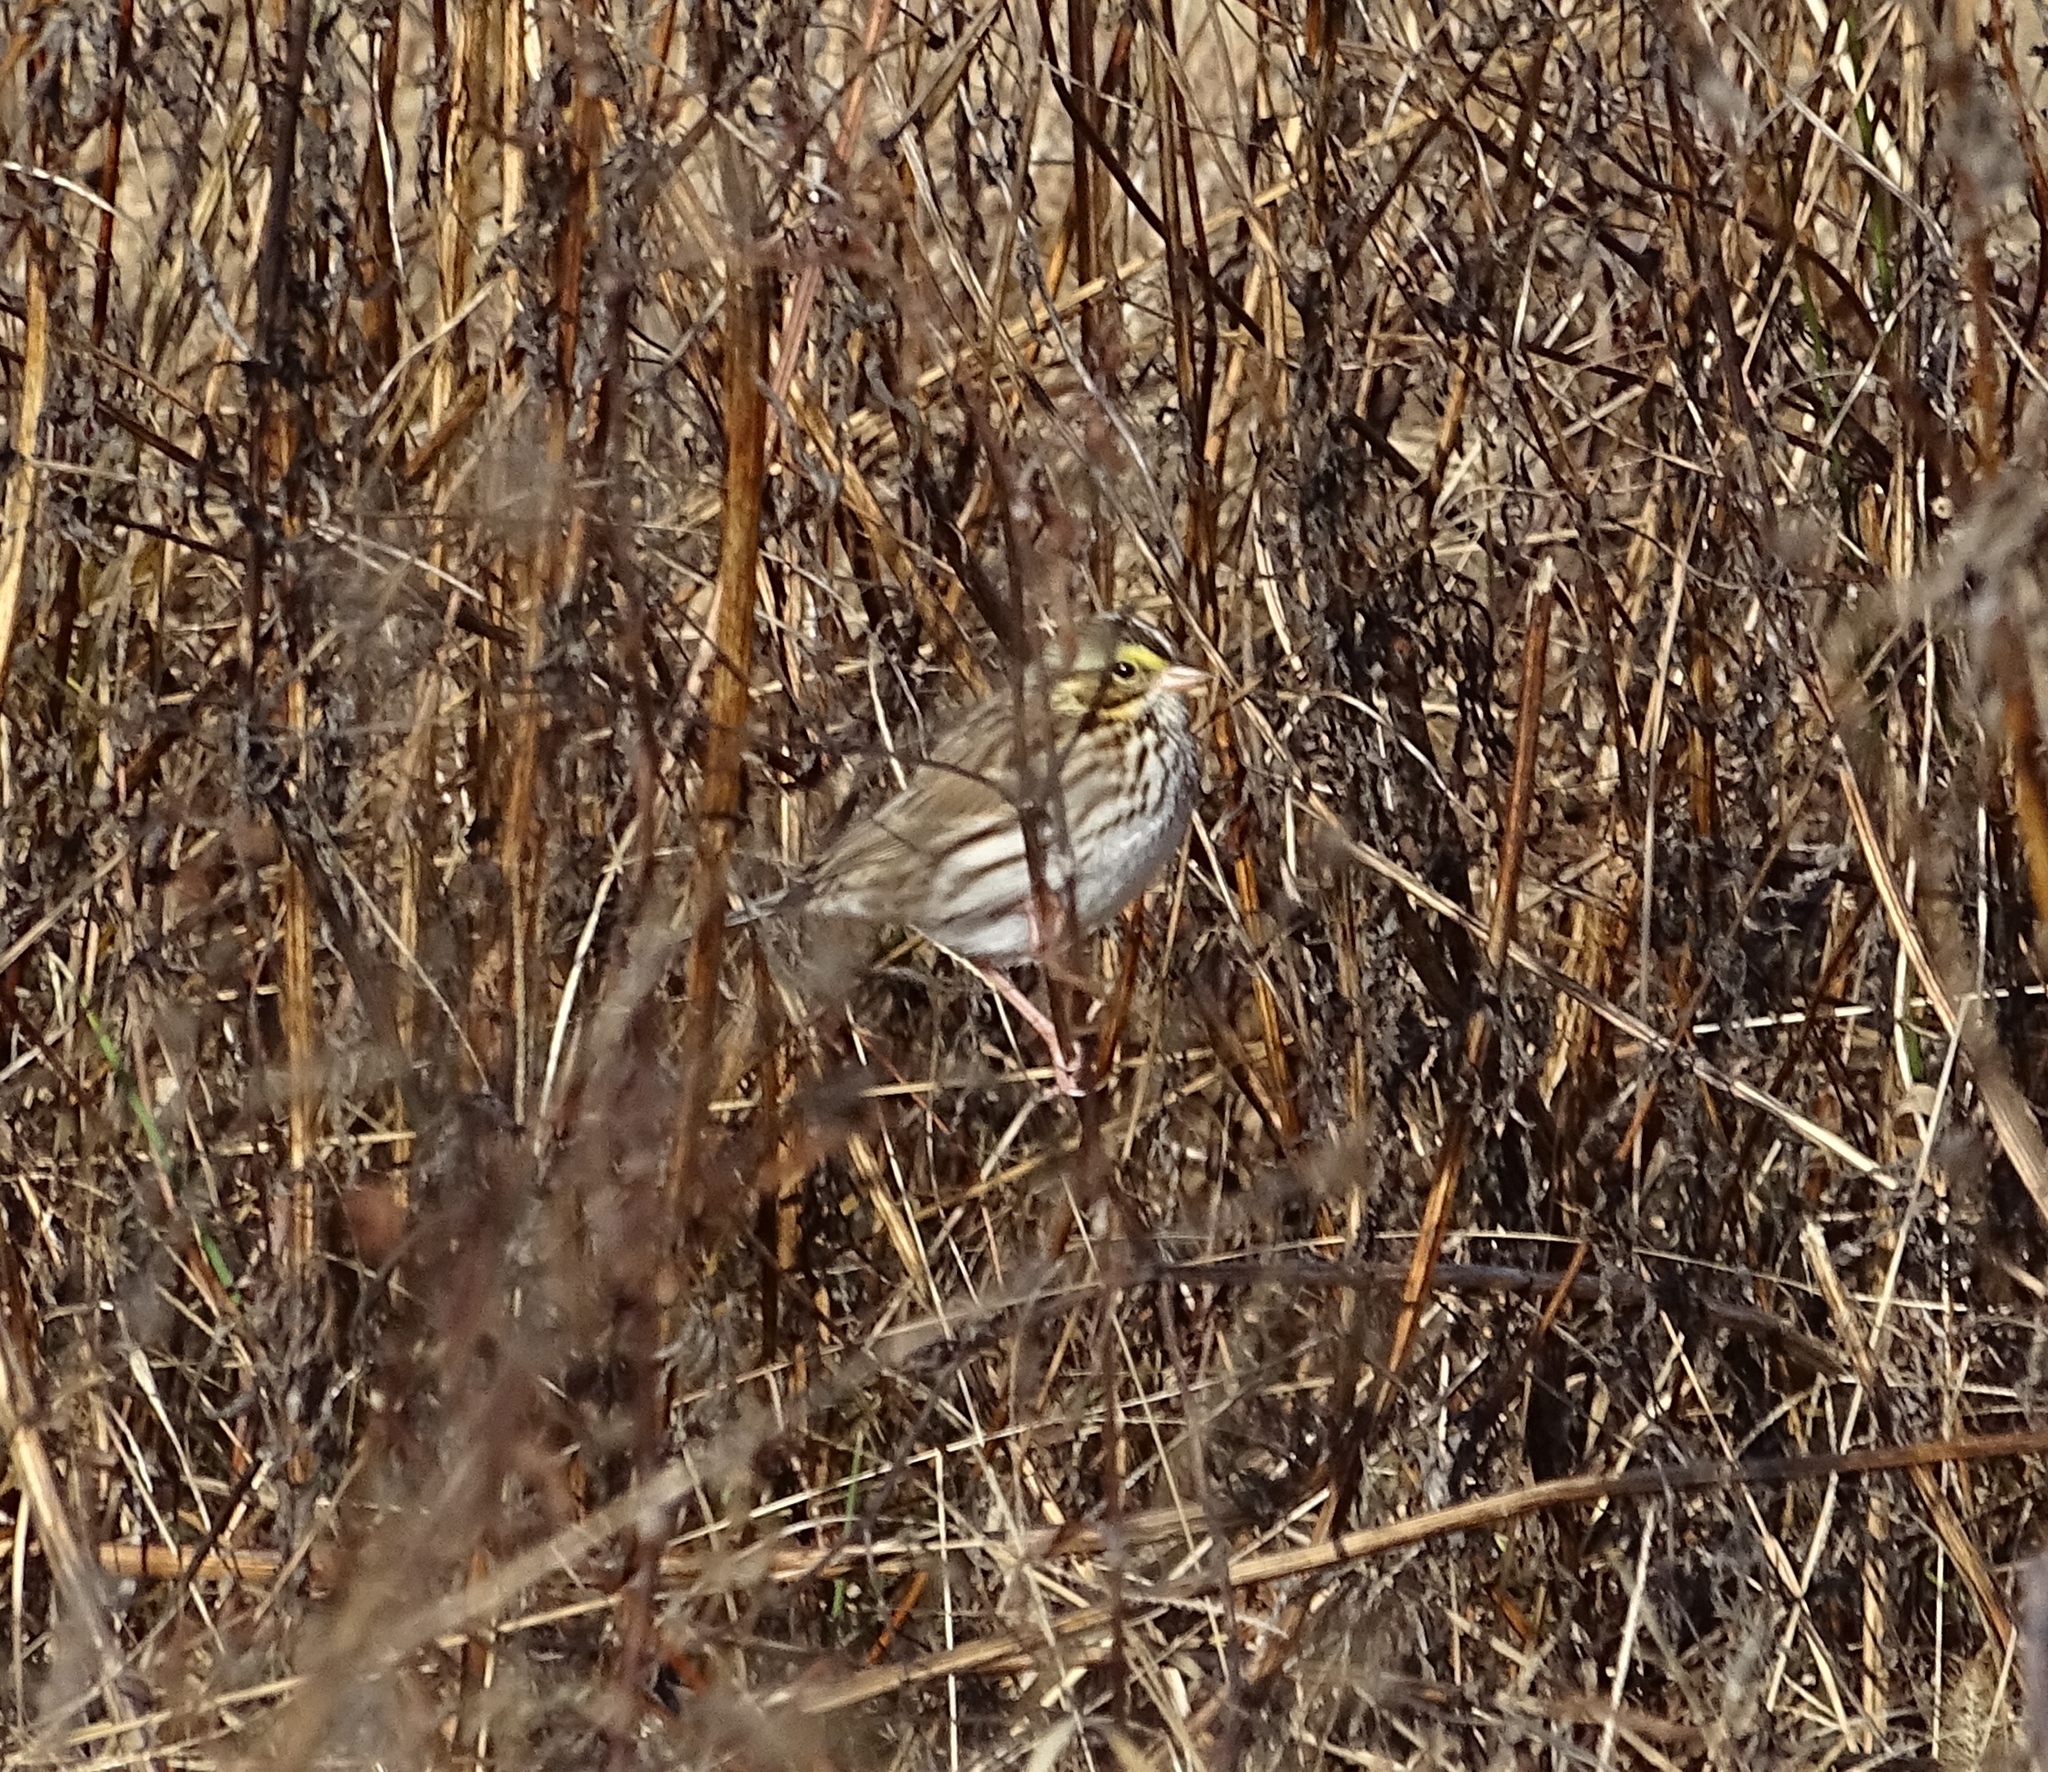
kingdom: Animalia
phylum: Chordata
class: Aves
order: Passeriformes
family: Passerellidae
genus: Passerculus
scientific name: Passerculus sandwichensis
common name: Savannah sparrow
